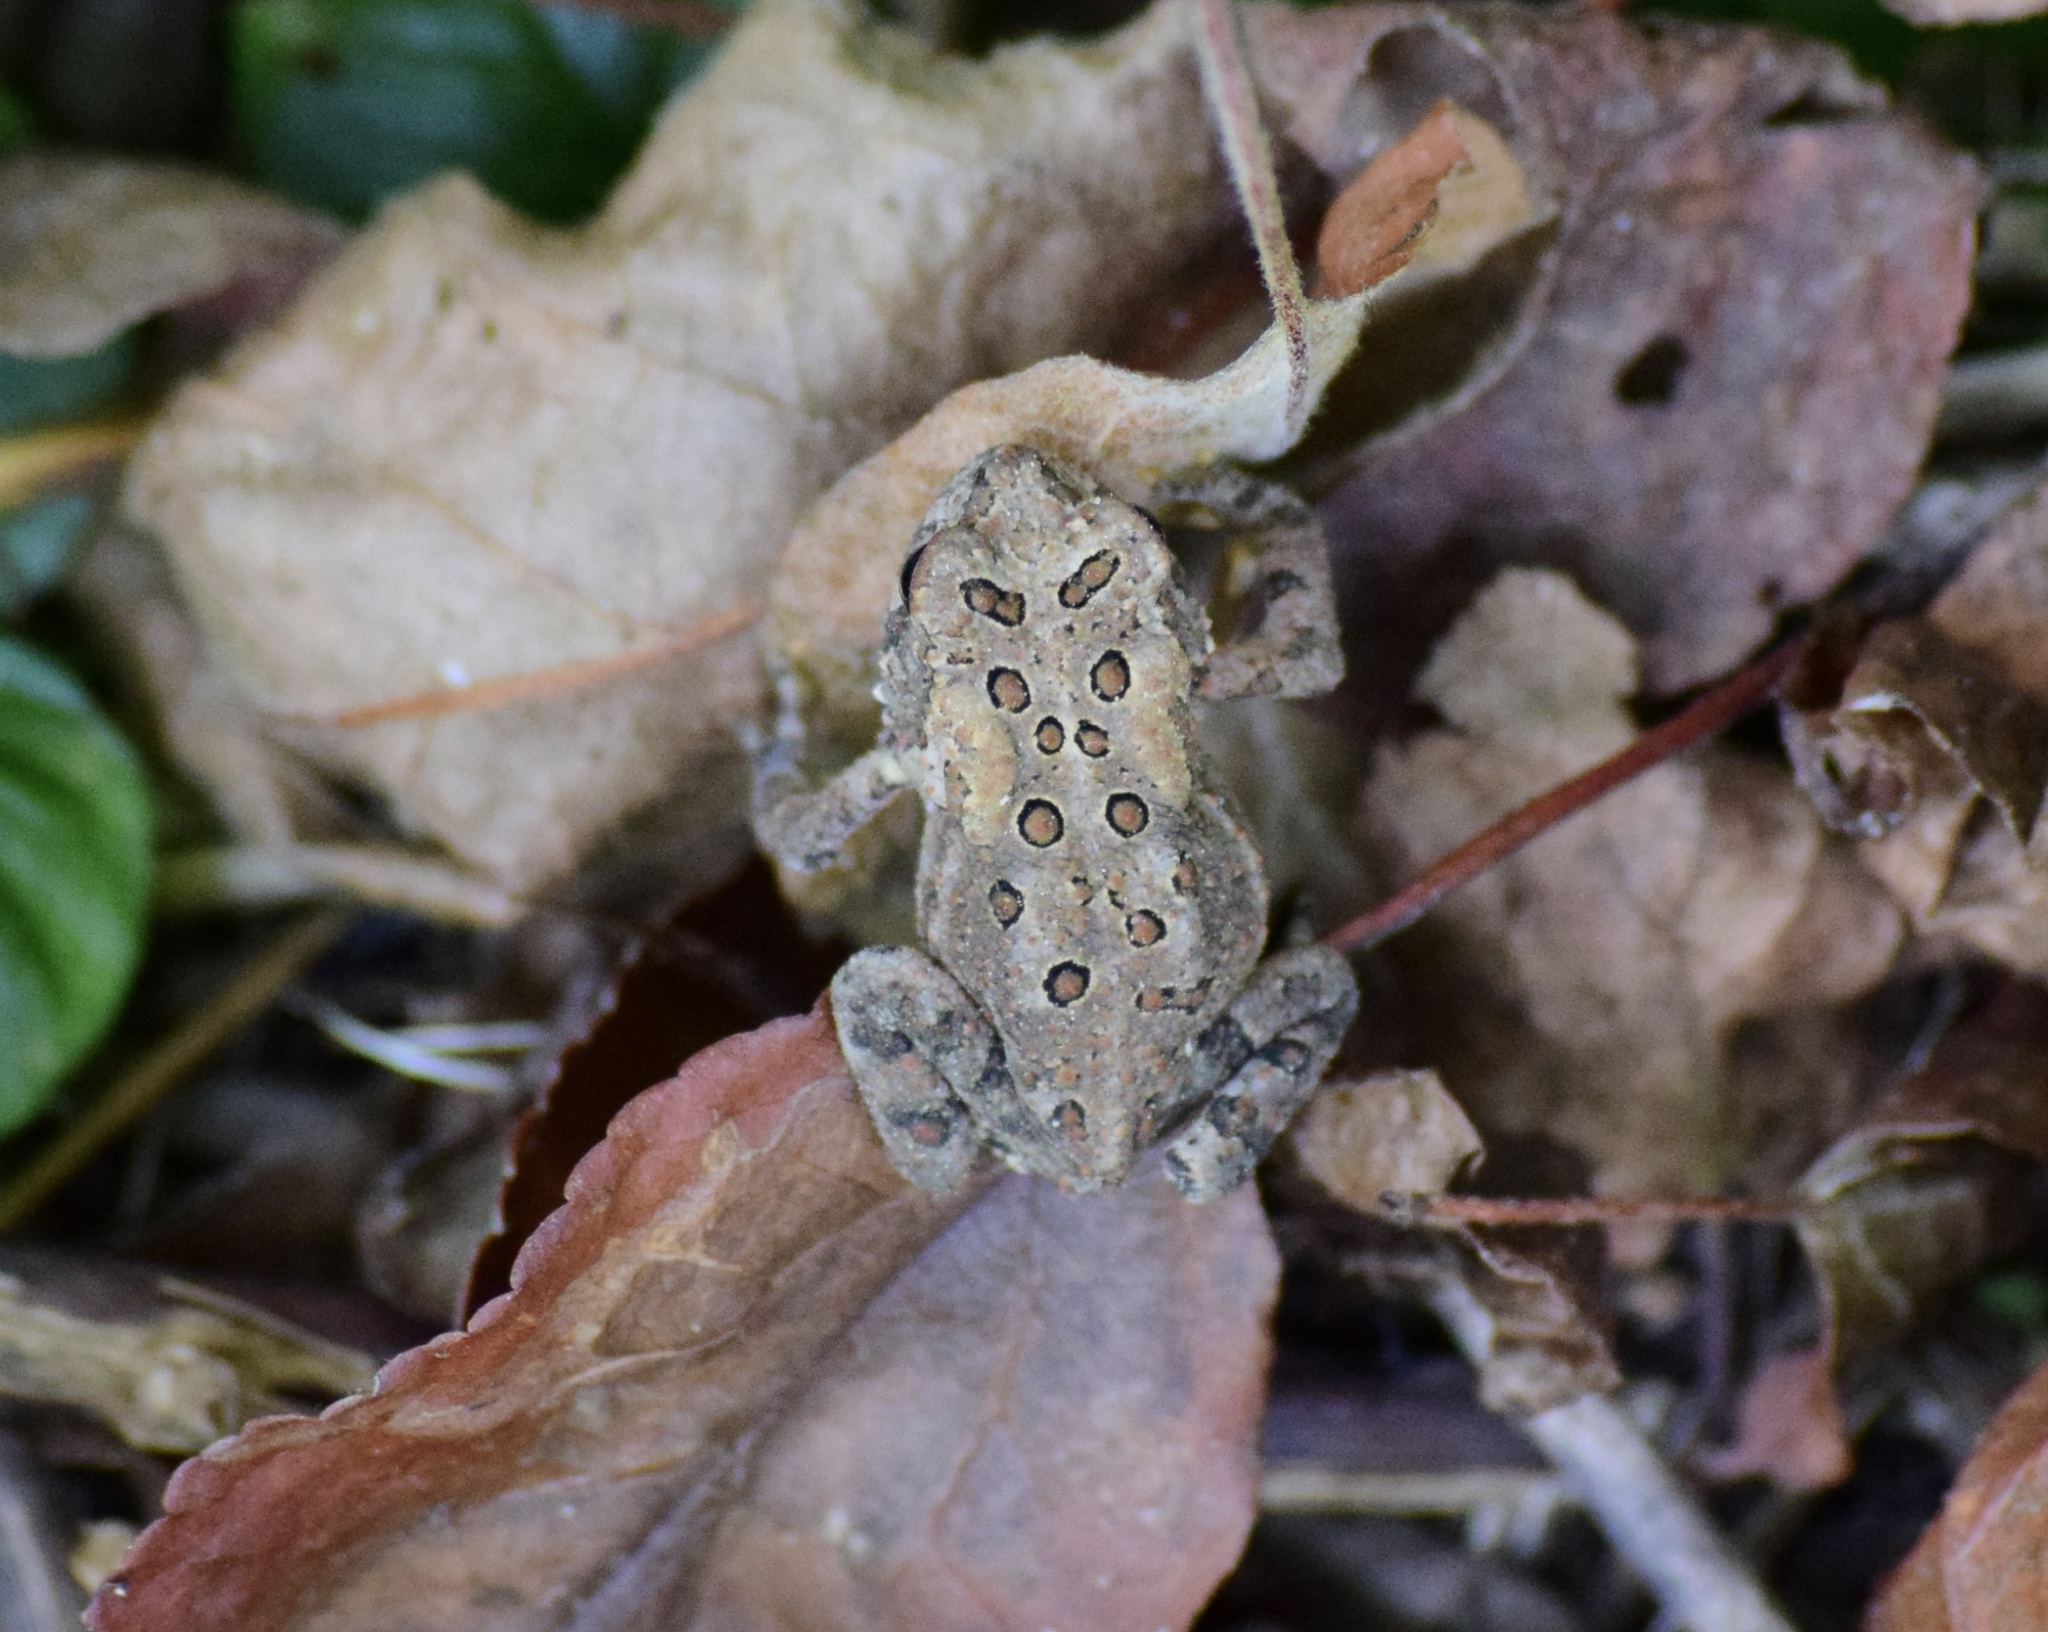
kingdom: Animalia
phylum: Chordata
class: Amphibia
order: Anura
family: Bufonidae
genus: Anaxyrus
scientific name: Anaxyrus americanus
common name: American toad
